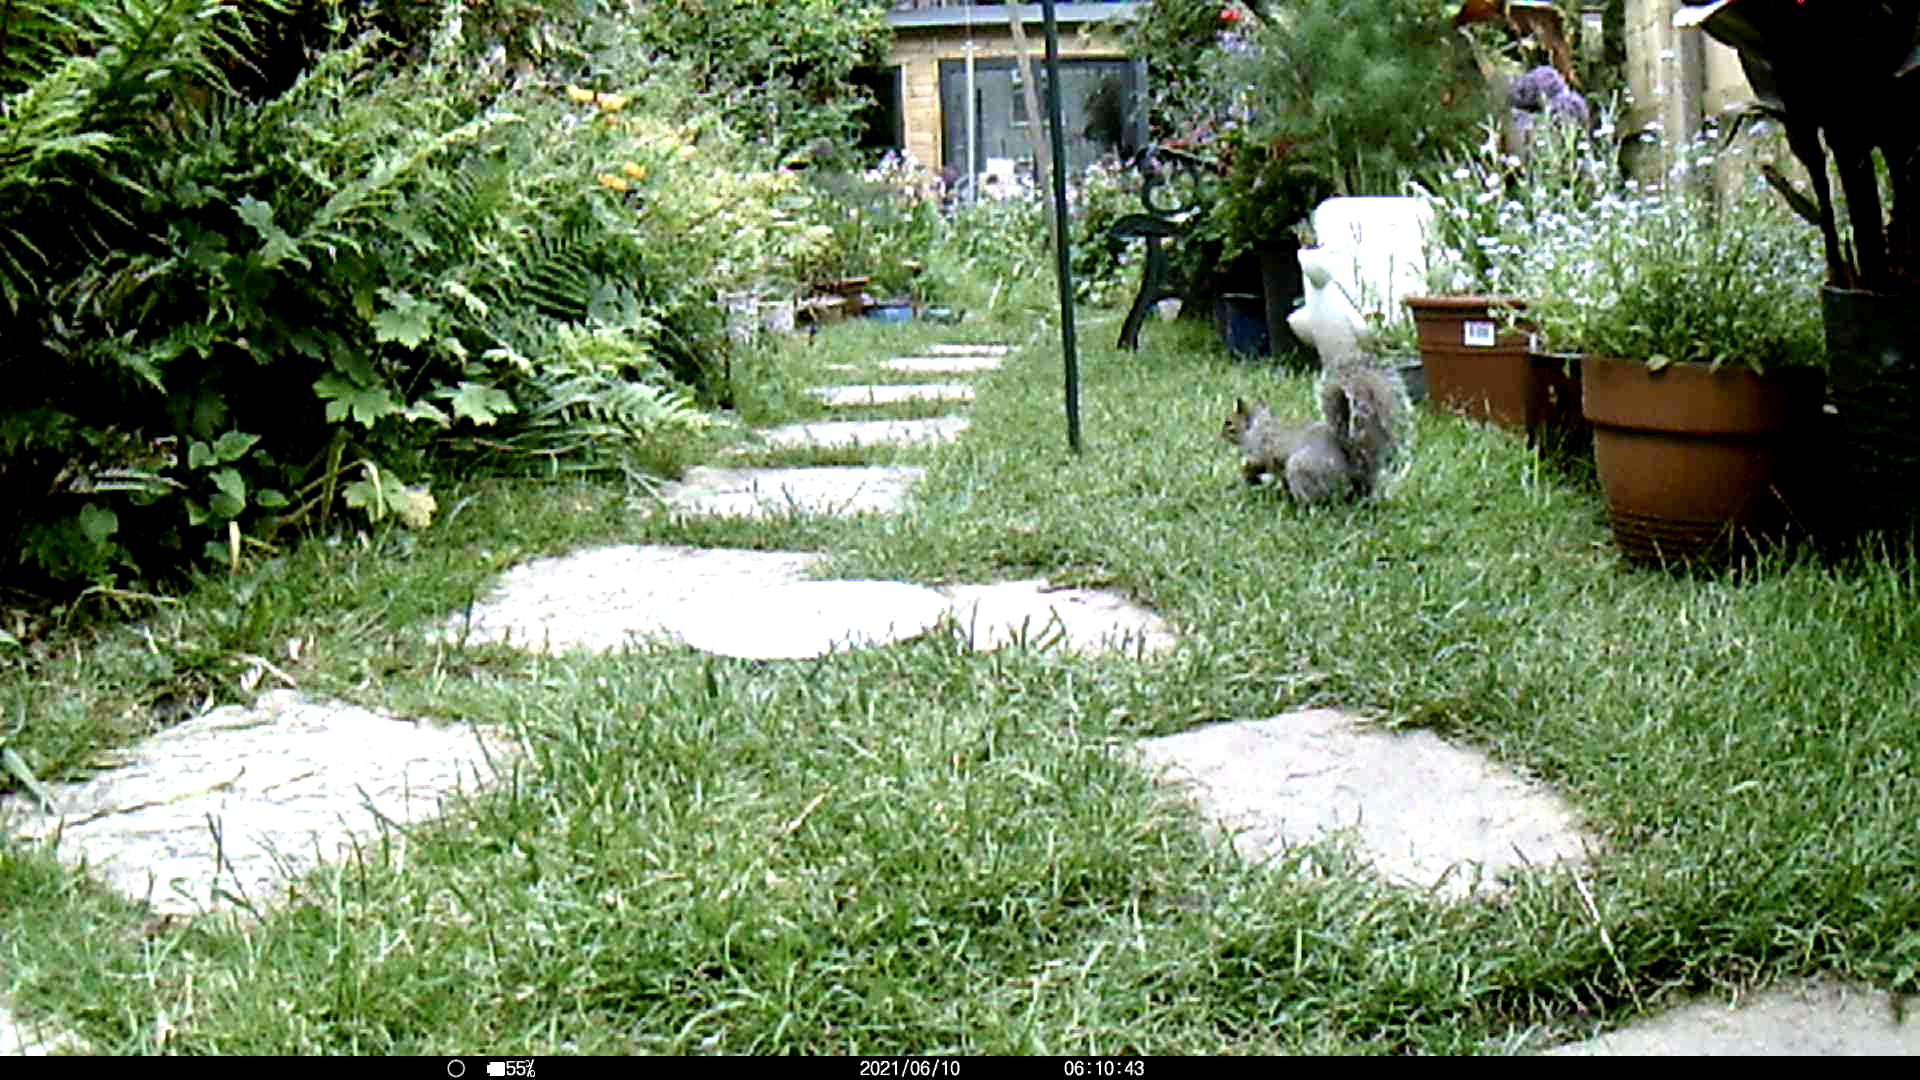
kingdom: Animalia
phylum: Chordata
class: Mammalia
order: Rodentia
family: Sciuridae
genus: Sciurus
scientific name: Sciurus carolinensis
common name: Eastern gray squirrel
